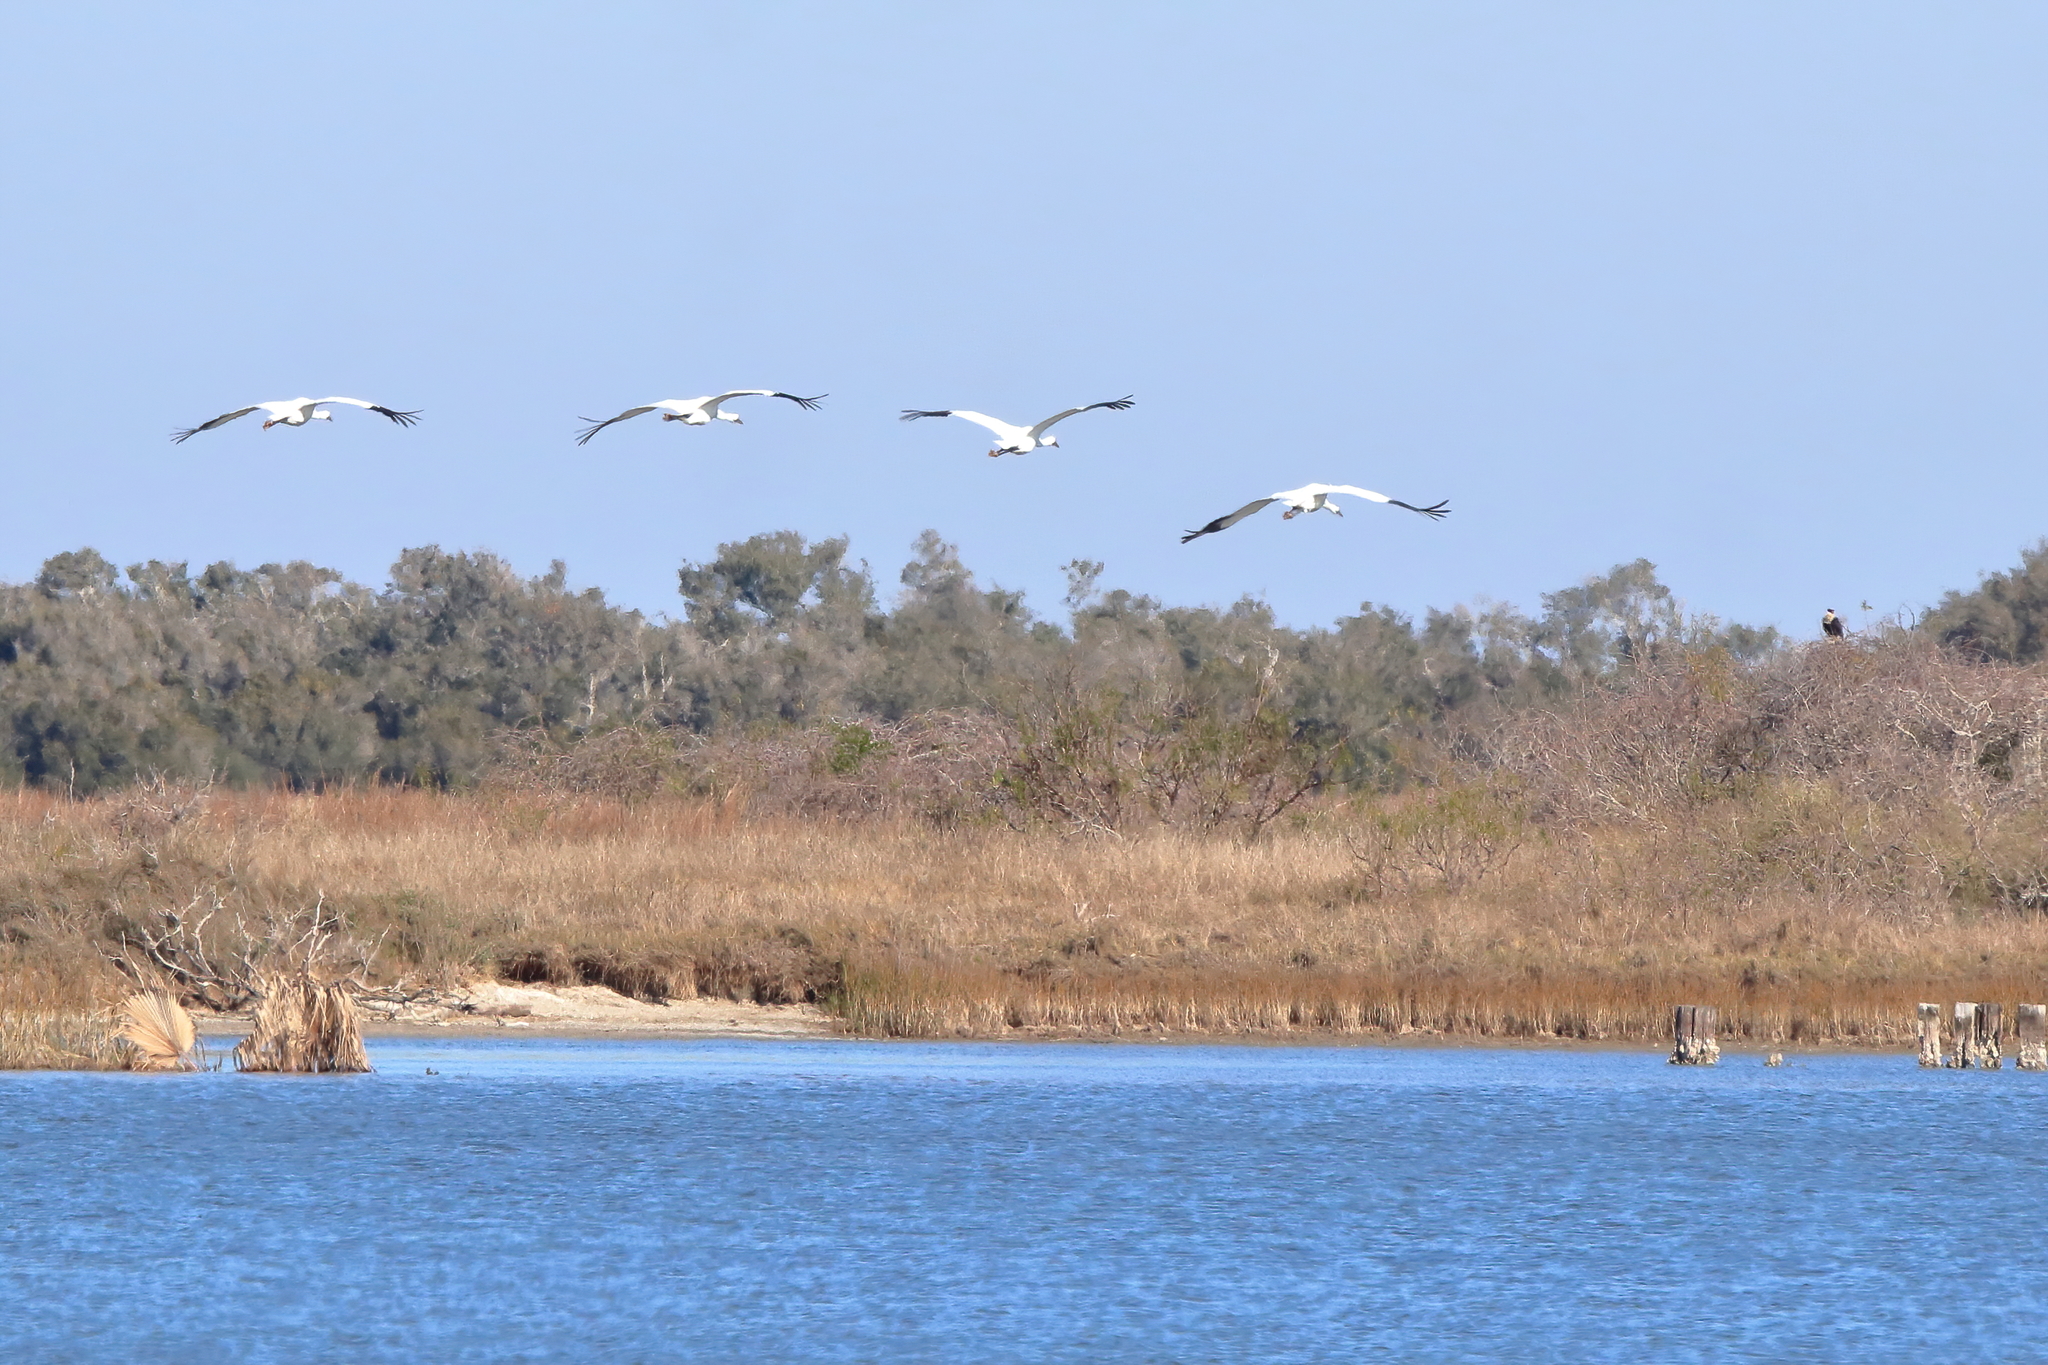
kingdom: Animalia
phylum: Chordata
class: Aves
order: Gruiformes
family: Gruidae
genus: Grus
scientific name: Grus americana
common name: Whooping crane
